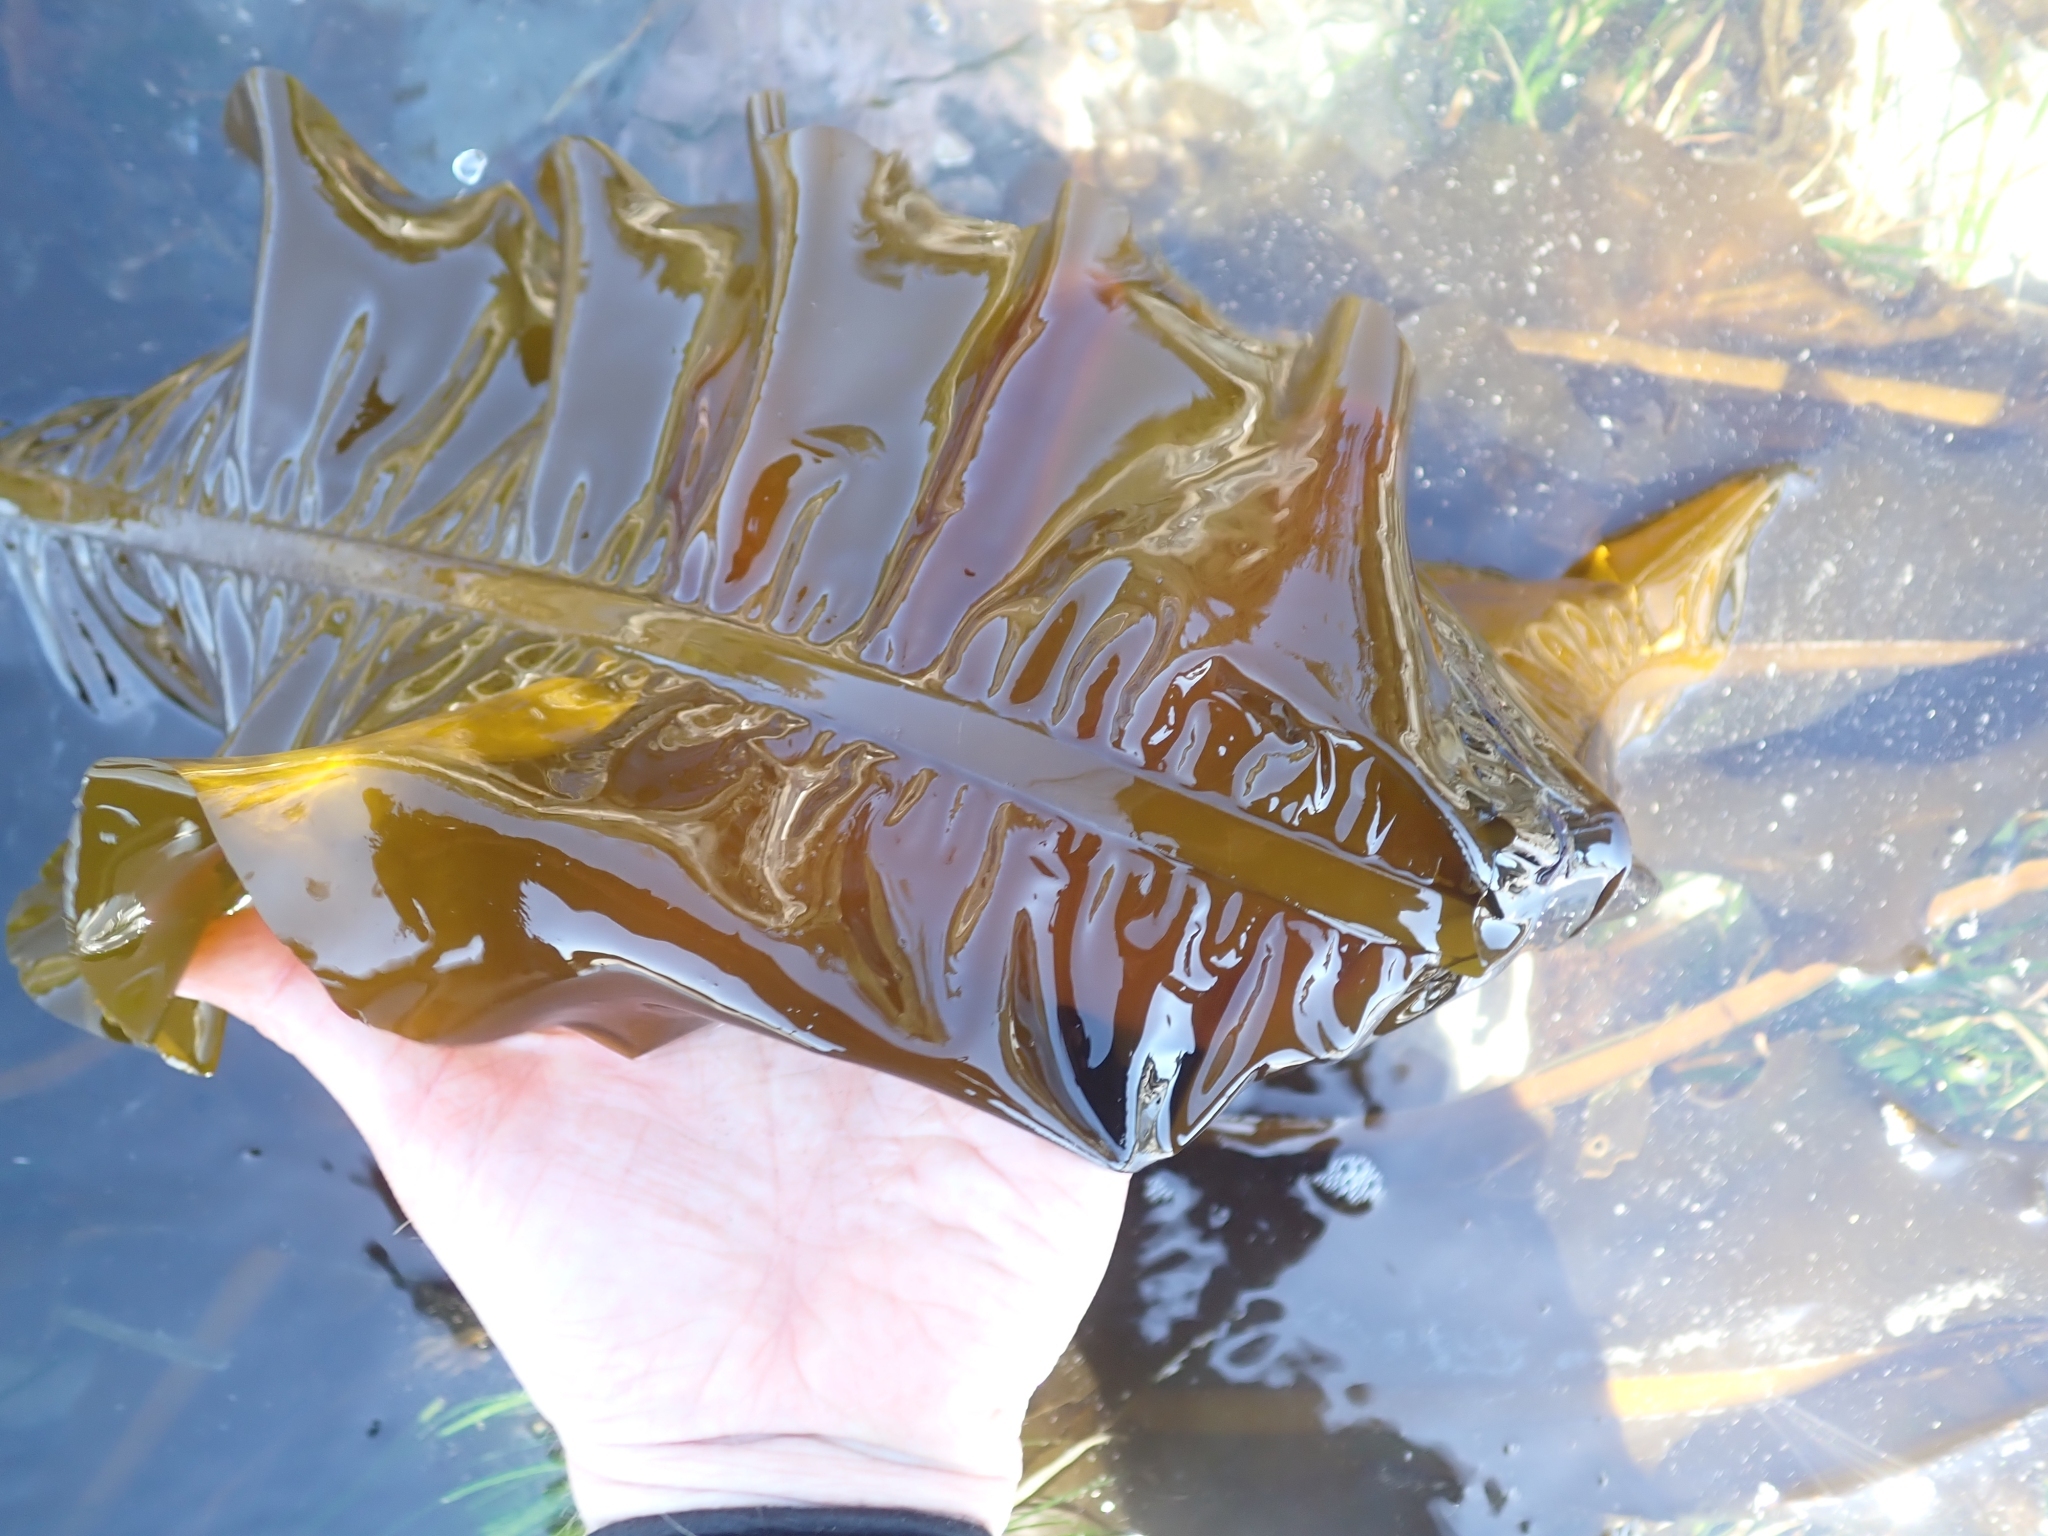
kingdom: Chromista
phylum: Ochrophyta
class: Phaeophyceae
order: Laminariales
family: Alariaceae
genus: Alaria
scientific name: Alaria marginata
